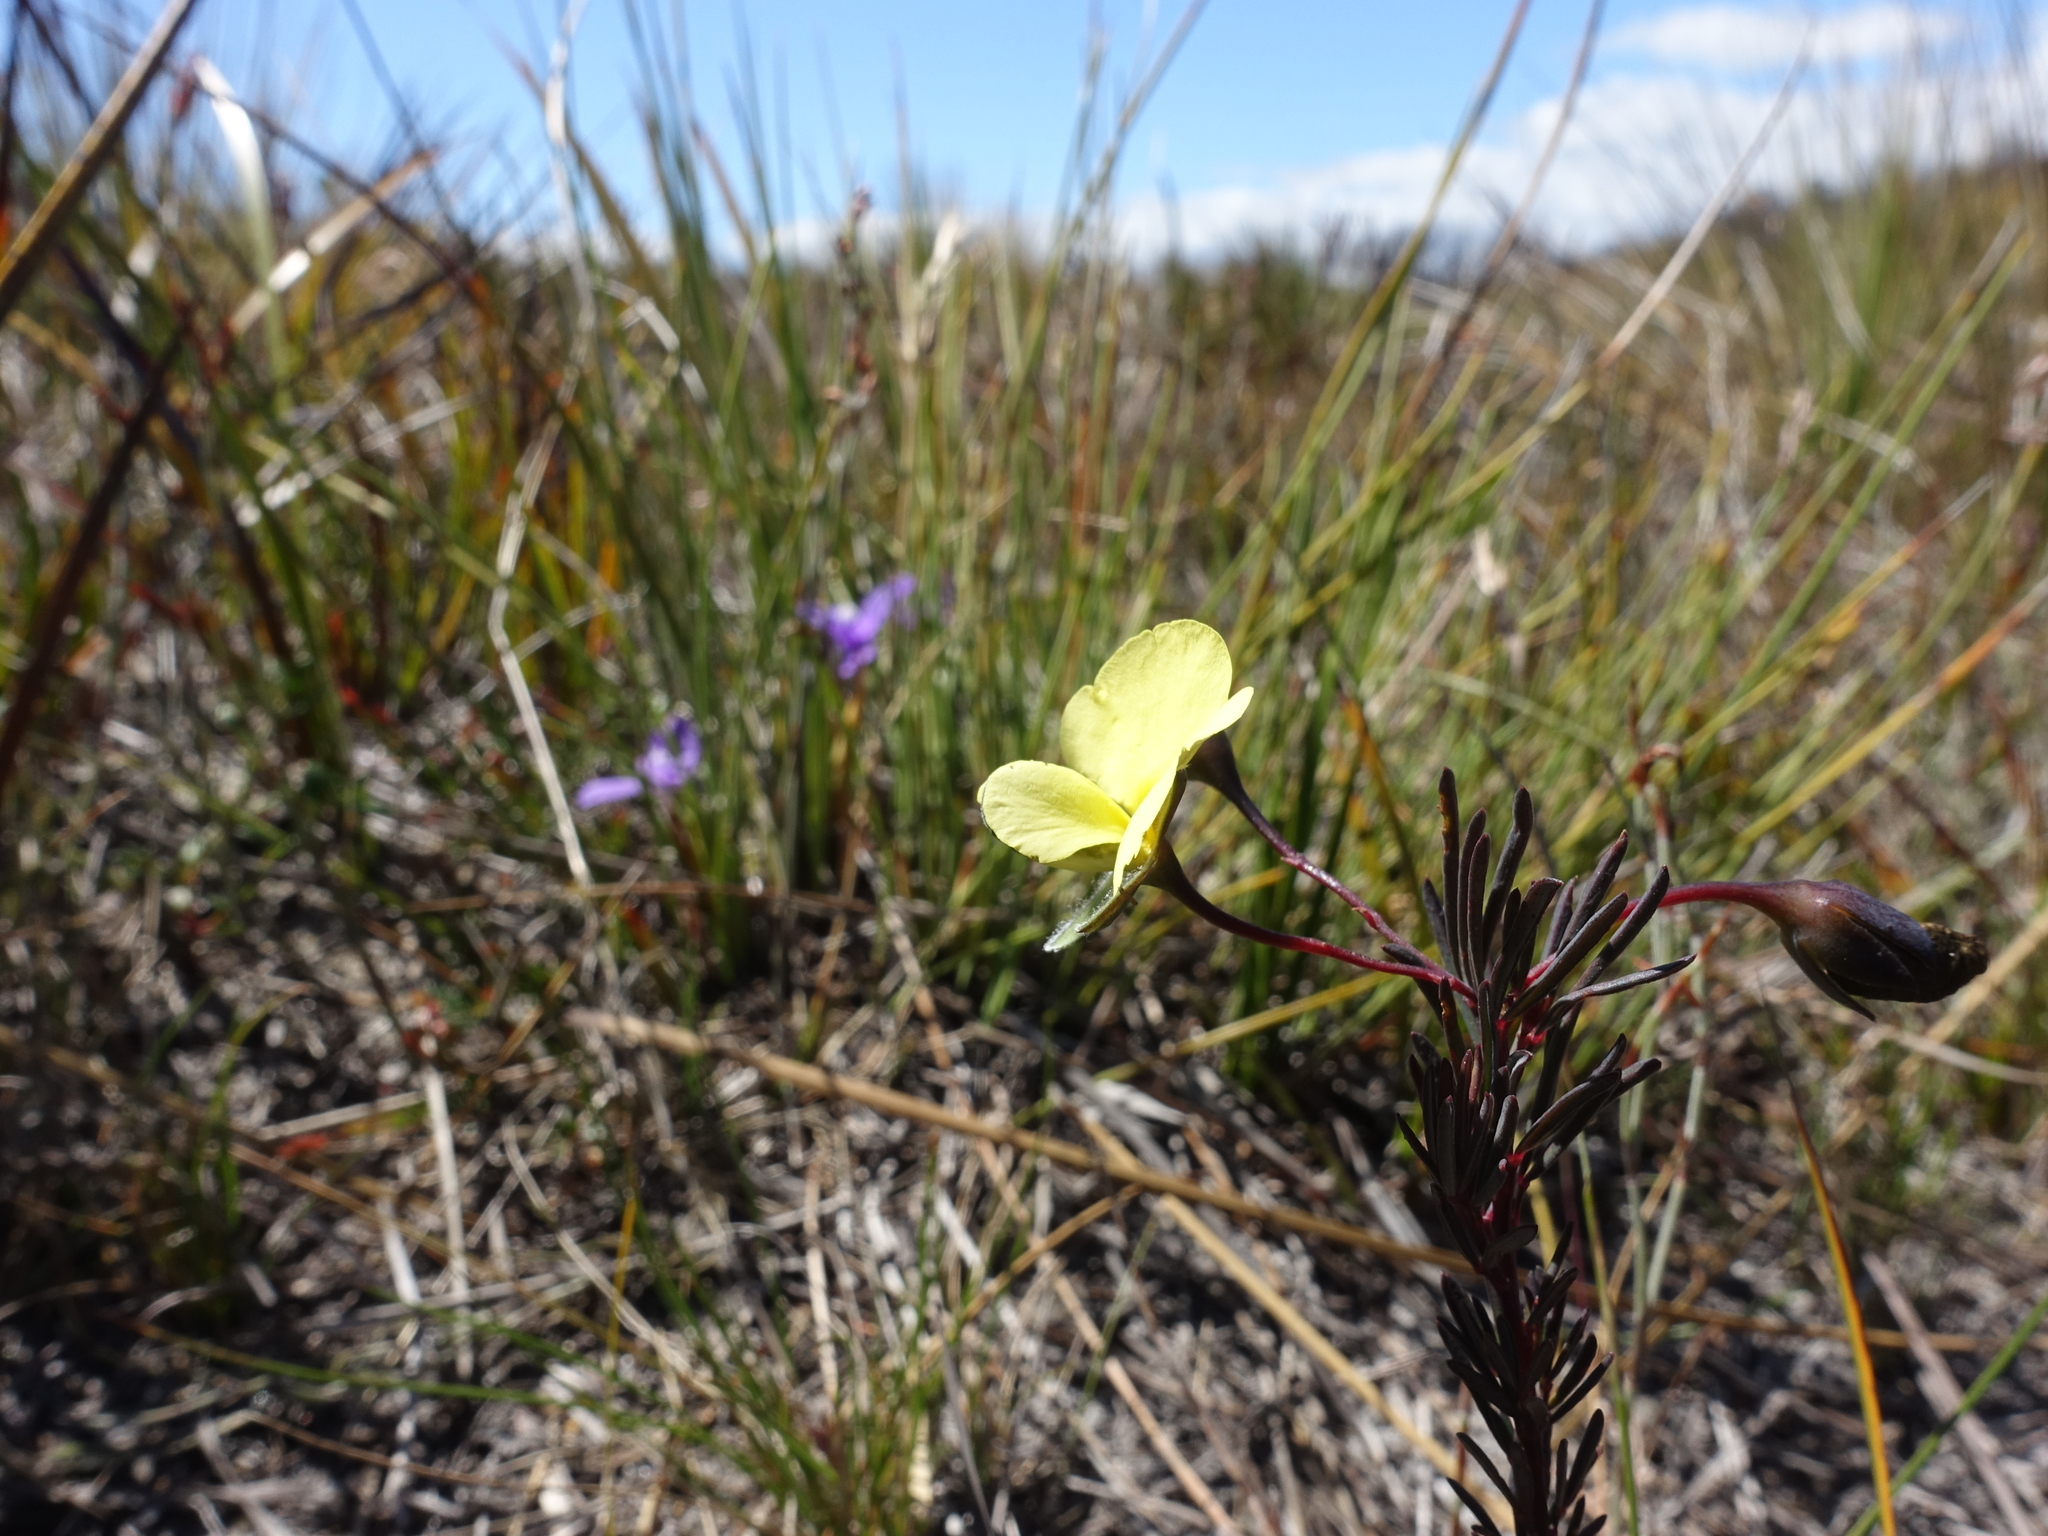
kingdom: Plantae
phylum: Tracheophyta
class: Magnoliopsida
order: Fabales
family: Fabaceae
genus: Gompholobium
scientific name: Gompholobium huegelii
